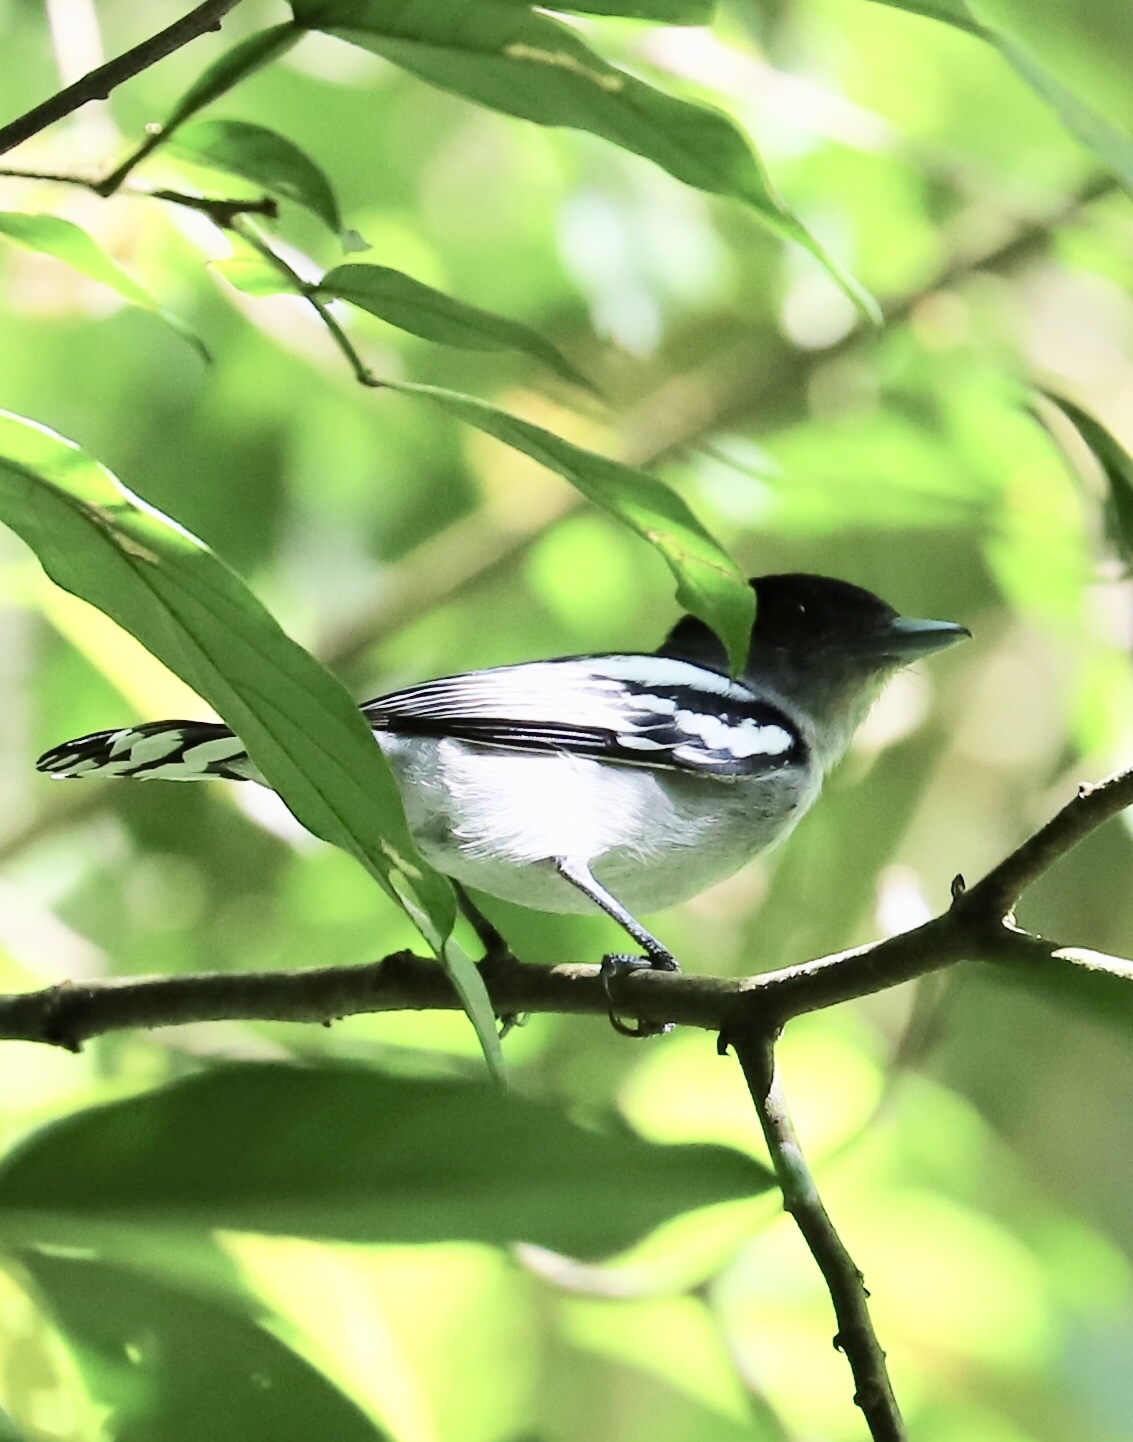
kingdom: Animalia
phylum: Chordata
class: Aves
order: Passeriformes
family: Cotingidae
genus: Pachyramphus
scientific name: Pachyramphus polychopterus
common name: White-winged becard
